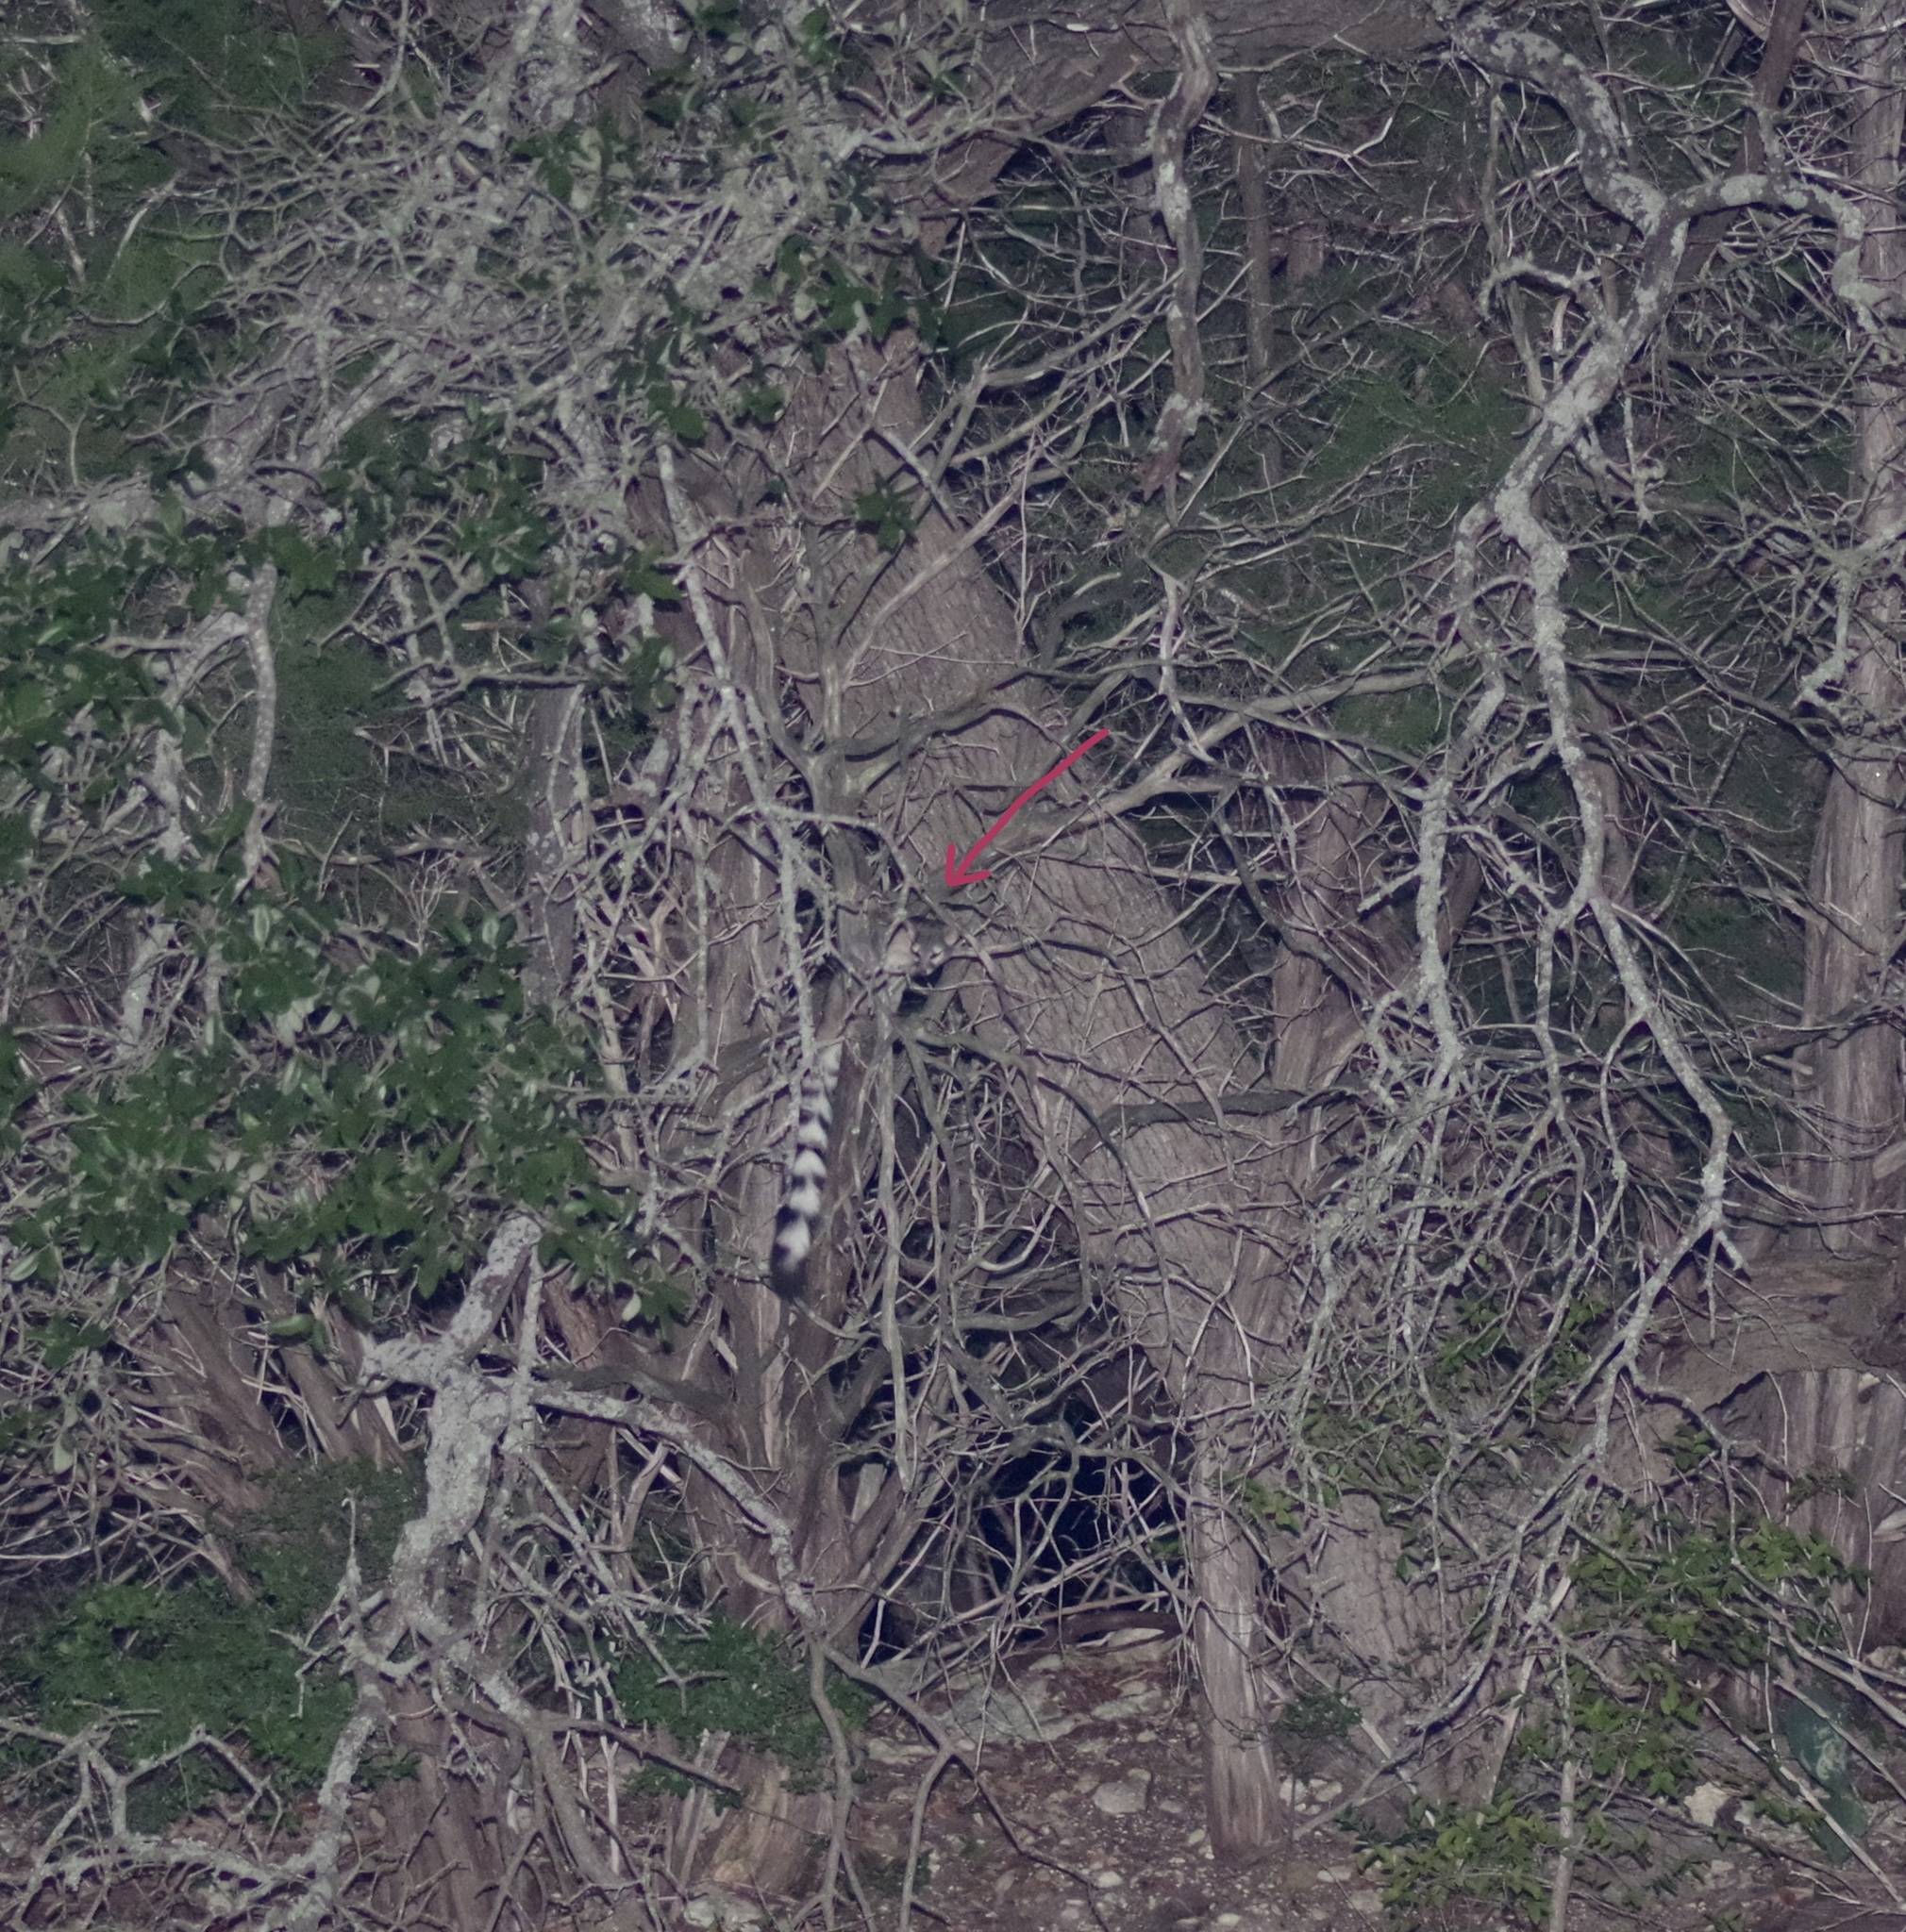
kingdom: Animalia
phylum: Chordata
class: Mammalia
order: Carnivora
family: Procyonidae
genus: Bassariscus
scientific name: Bassariscus astutus
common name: Ringtail
